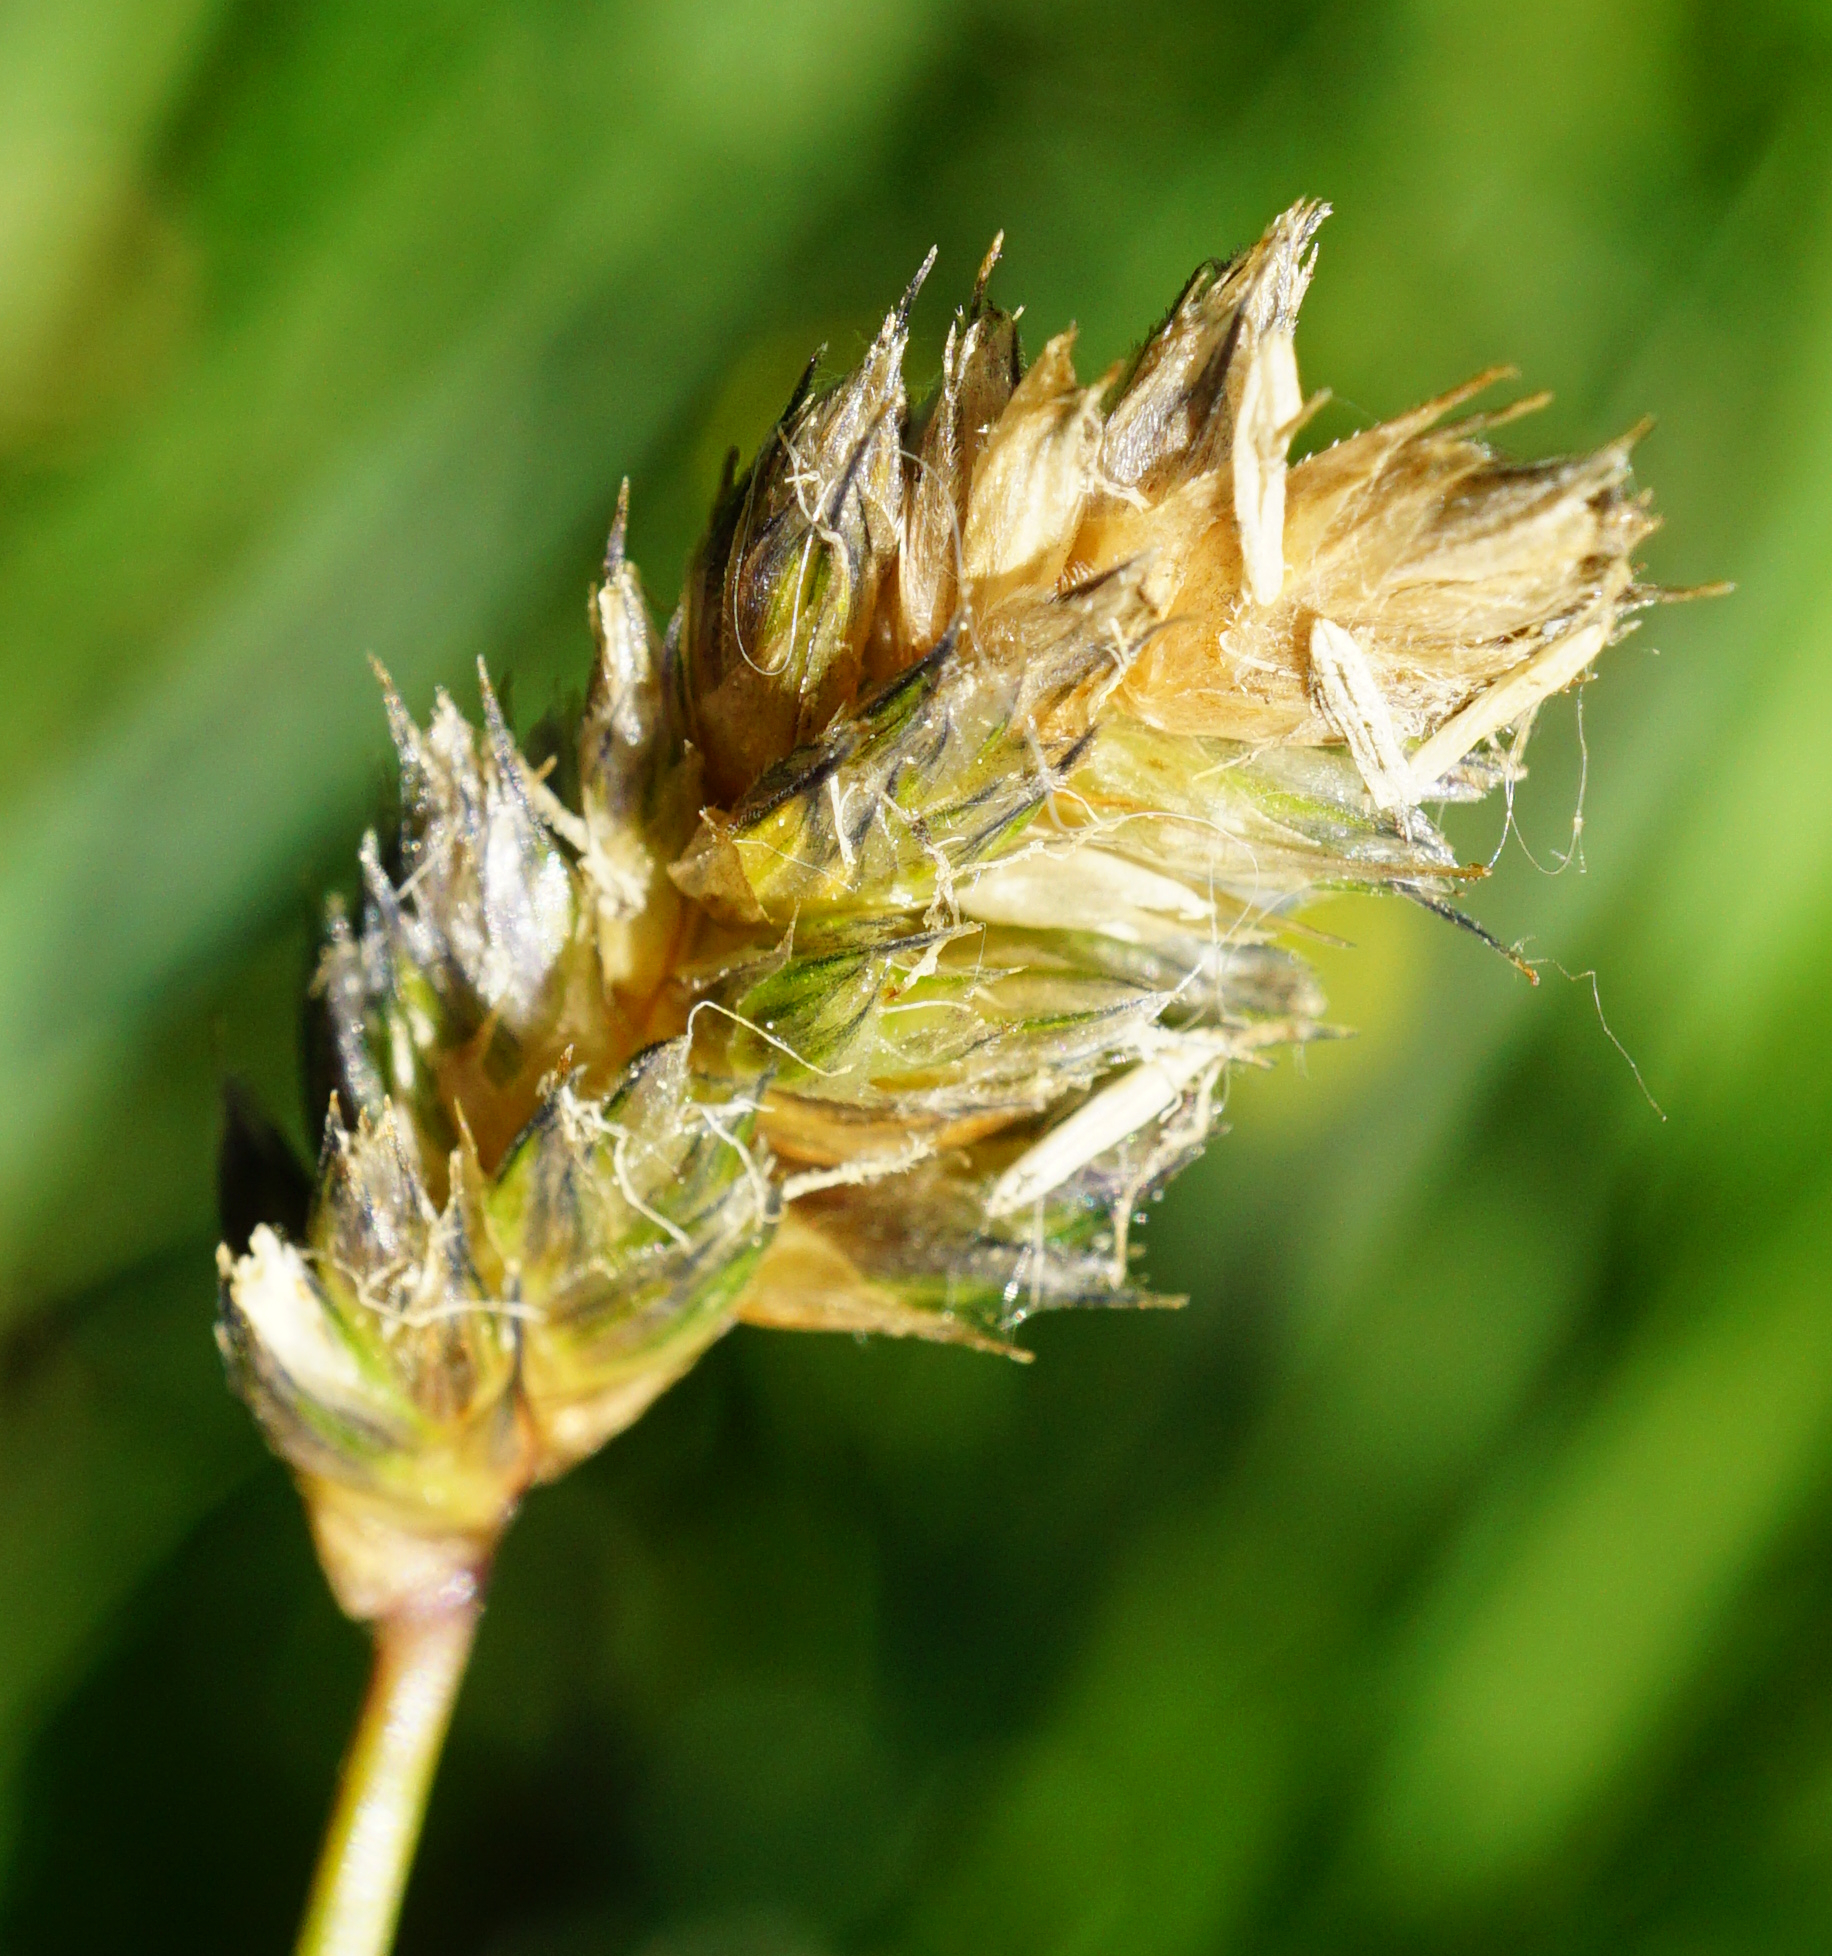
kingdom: Plantae
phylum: Tracheophyta
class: Liliopsida
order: Poales
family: Poaceae
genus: Sesleria
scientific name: Sesleria uliginosa
